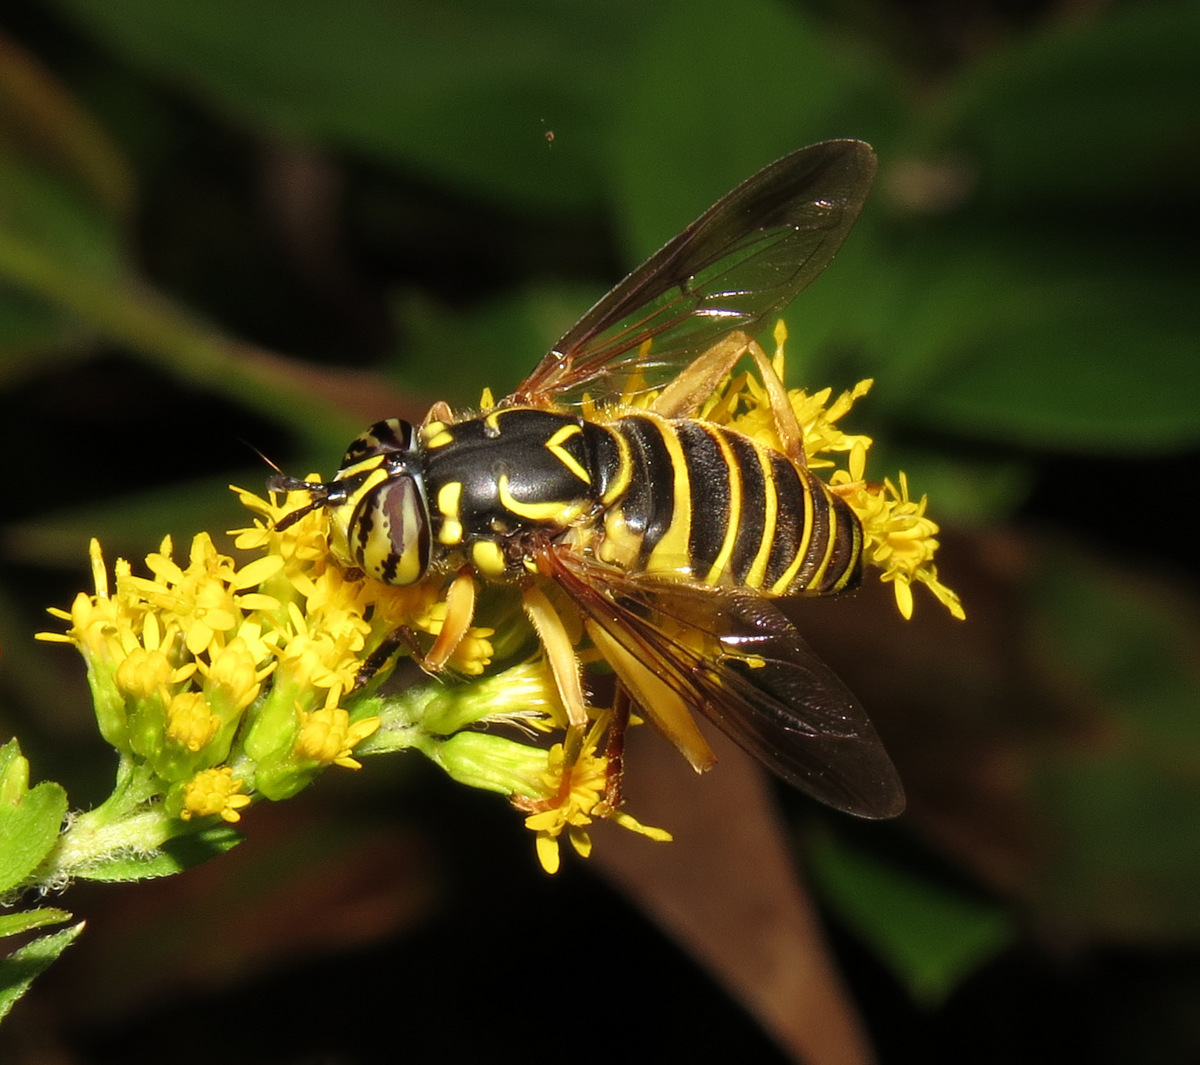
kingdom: Animalia
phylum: Arthropoda
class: Insecta
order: Diptera
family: Syrphidae
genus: Spilomyia
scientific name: Spilomyia longicornis
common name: Eastern hornet fly
